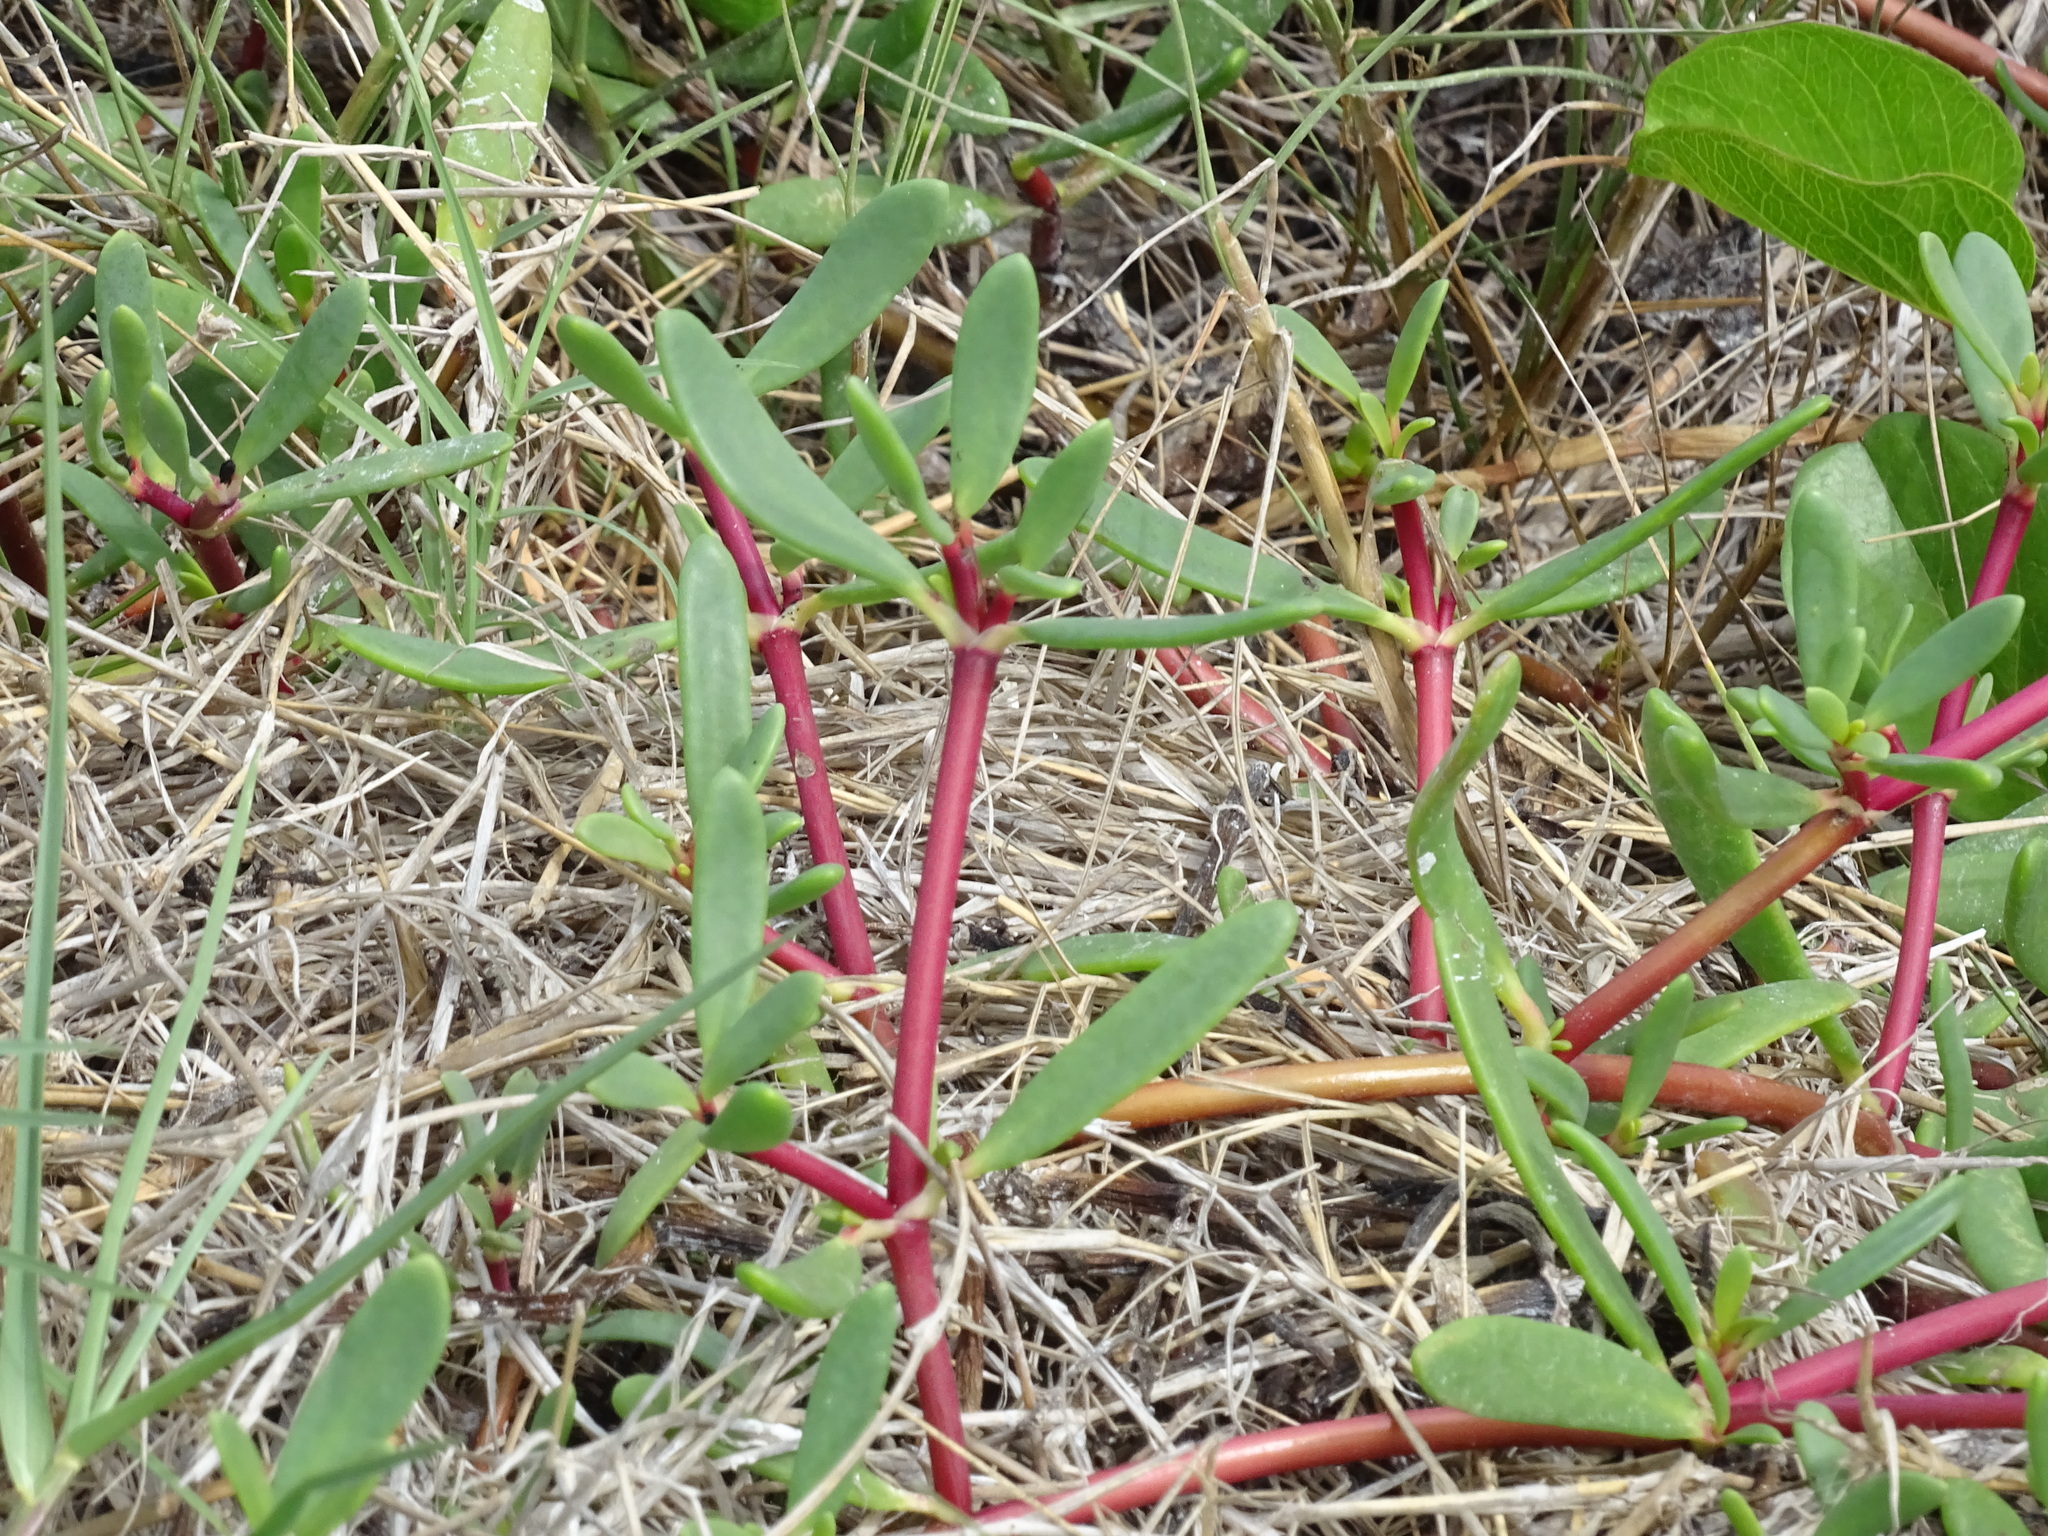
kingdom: Plantae
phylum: Tracheophyta
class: Magnoliopsida
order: Caryophyllales
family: Aizoaceae
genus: Sesuvium
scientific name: Sesuvium portulacastrum
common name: Sea-purslane
